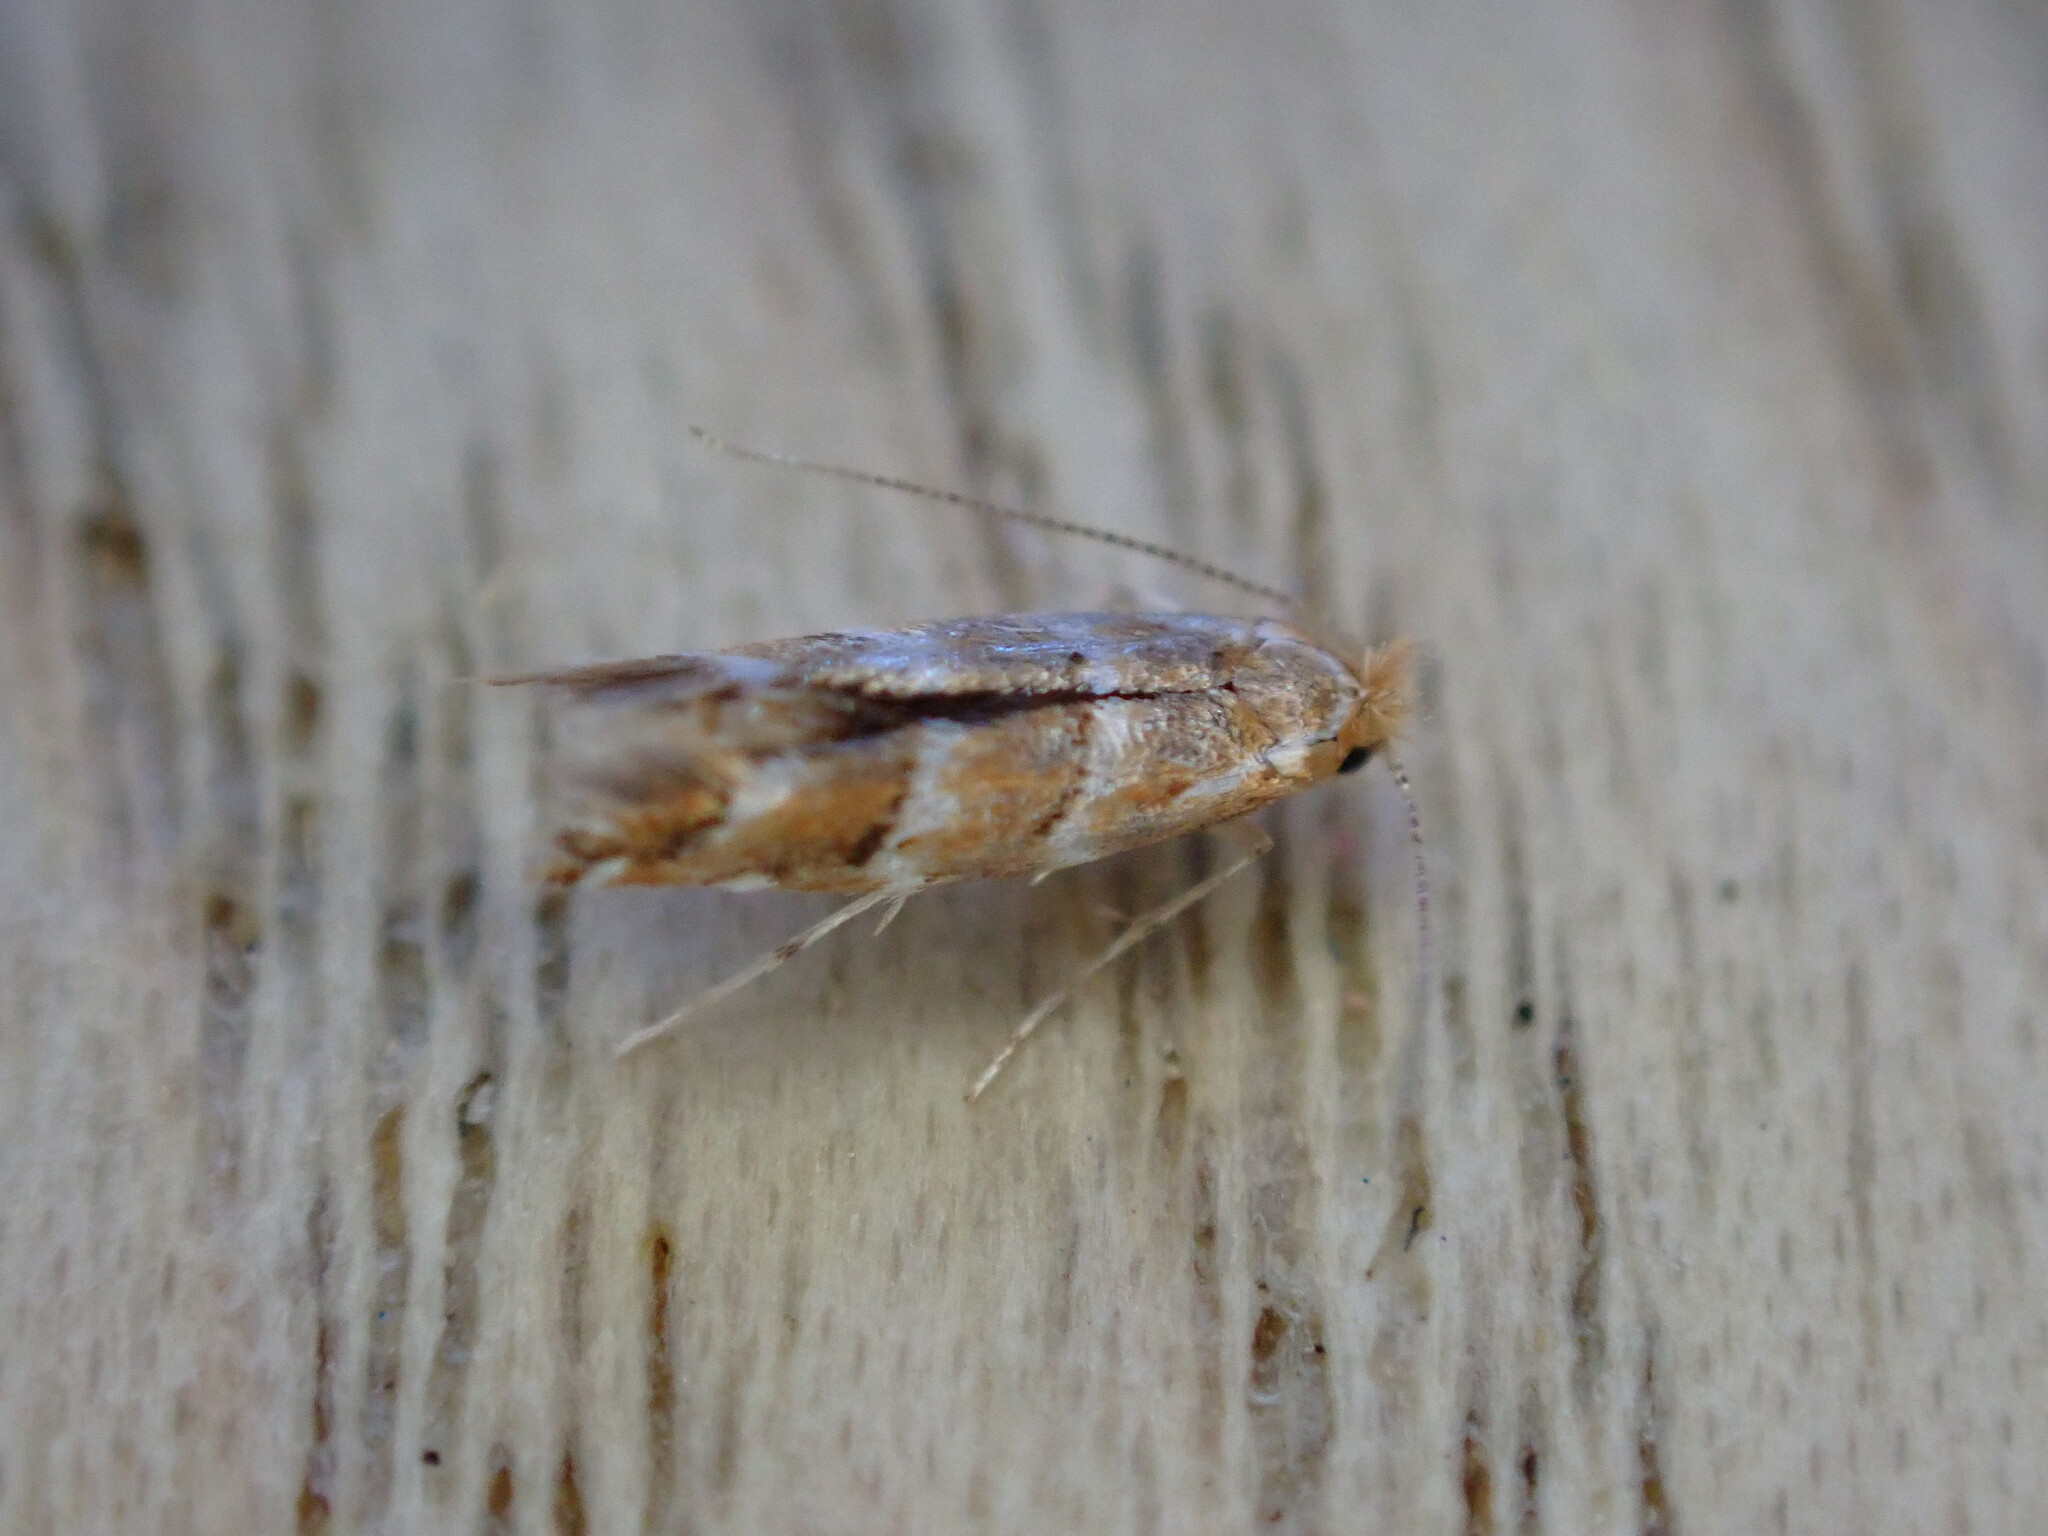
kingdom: Animalia
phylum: Arthropoda
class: Insecta
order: Lepidoptera
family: Gracillariidae
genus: Cameraria
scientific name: Cameraria ohridella
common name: Horse-chestnut leaf-miner
